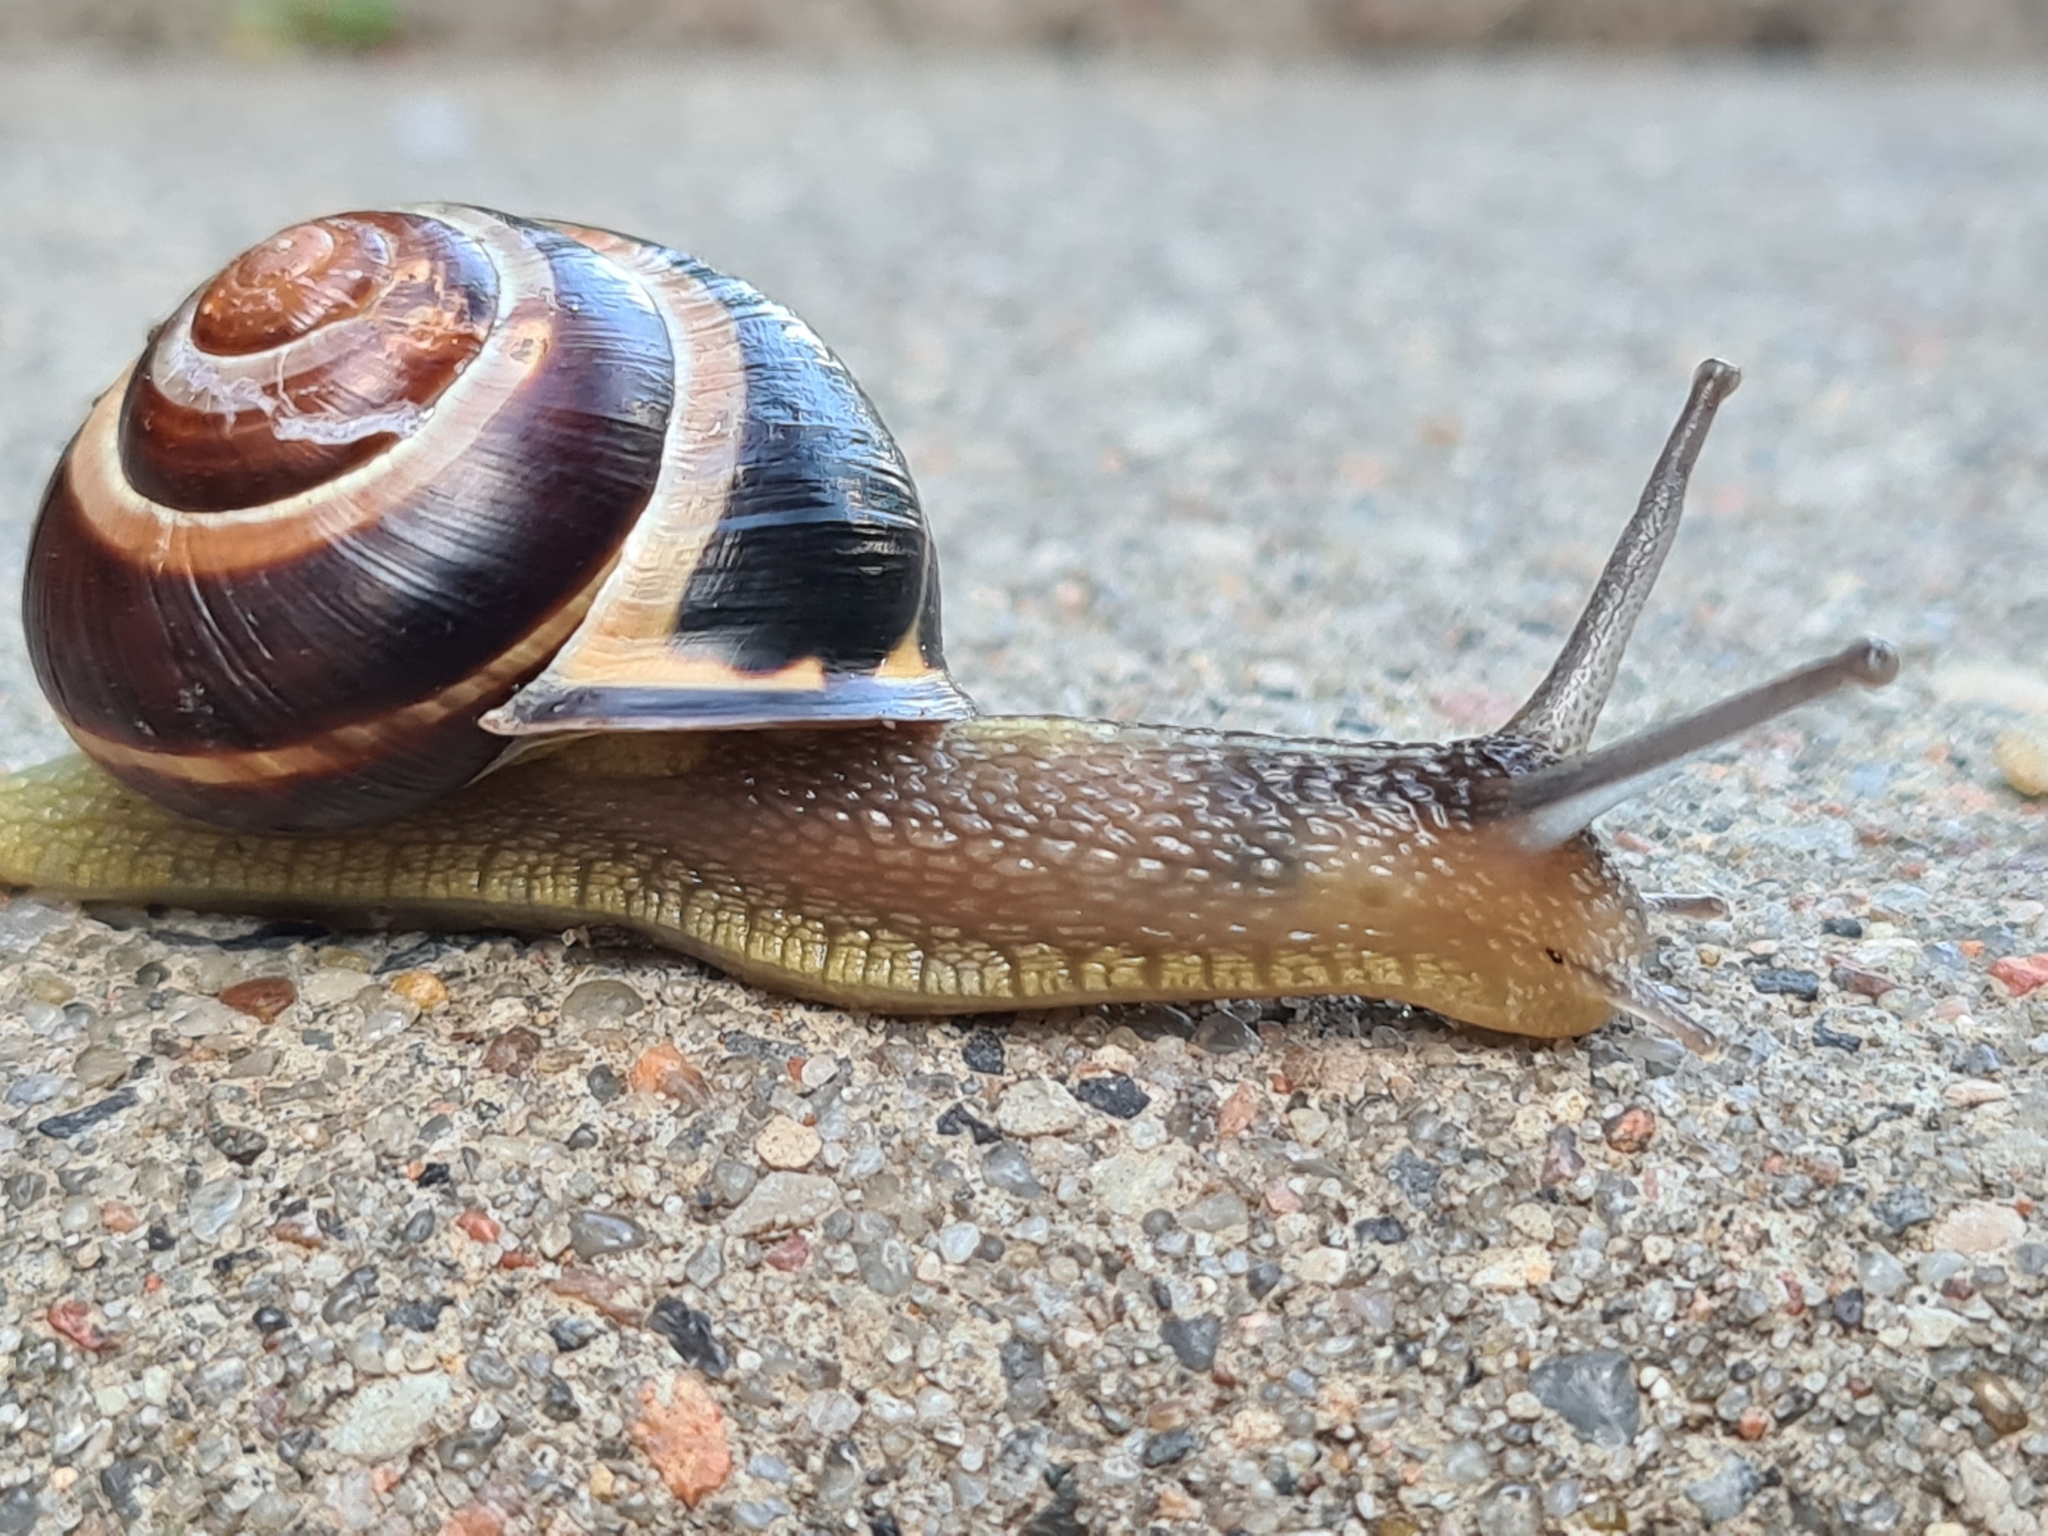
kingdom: Animalia
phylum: Mollusca
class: Gastropoda
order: Stylommatophora
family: Helicidae
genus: Cepaea
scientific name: Cepaea nemoralis
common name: Grovesnail
